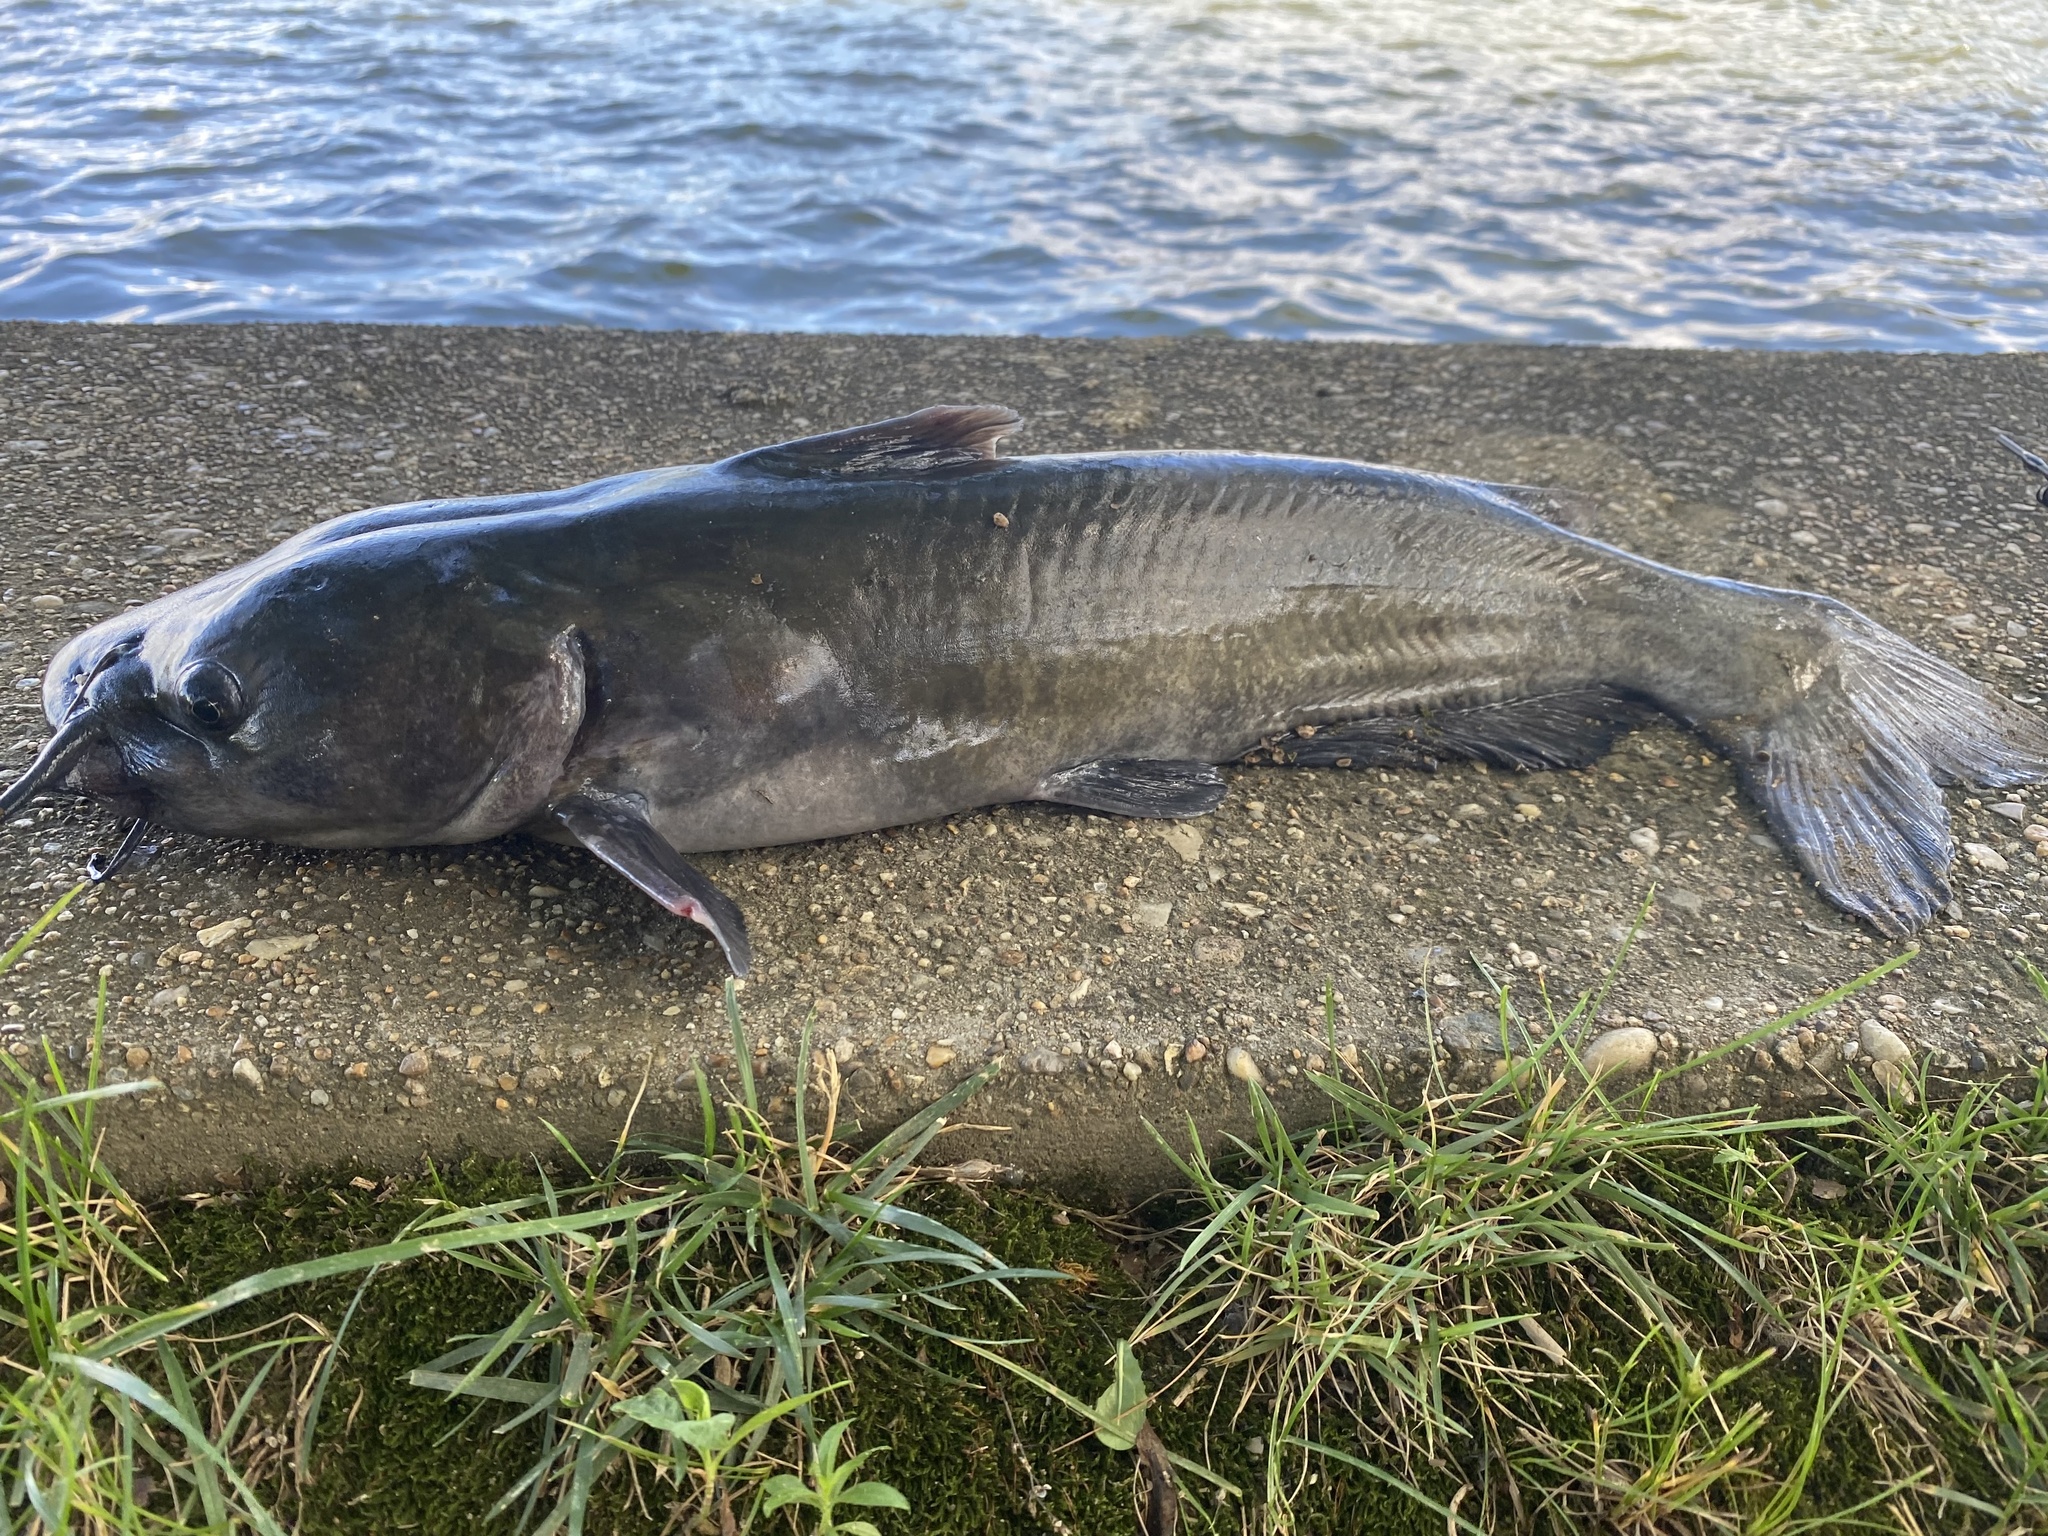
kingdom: Animalia
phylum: Chordata
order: Siluriformes
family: Ictaluridae
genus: Ictalurus
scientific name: Ictalurus punctatus
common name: Channel catfish
